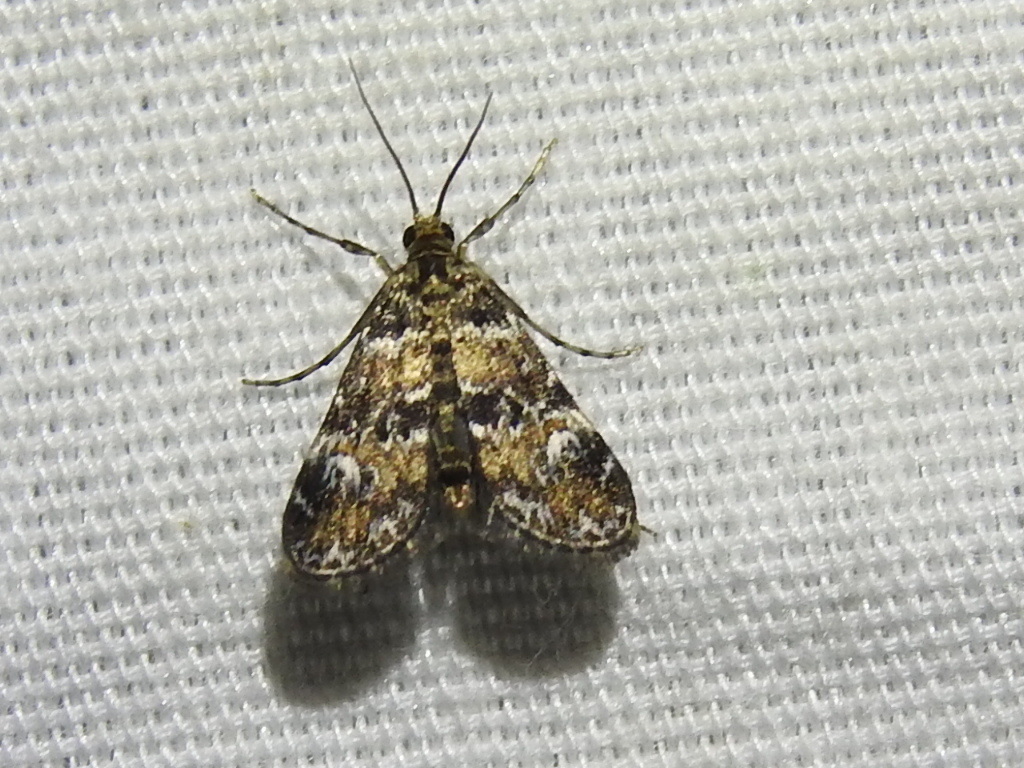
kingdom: Animalia
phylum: Arthropoda
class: Insecta
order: Lepidoptera
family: Crambidae
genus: Elophila
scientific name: Elophila obliteralis
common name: Waterlily leafcutter moth
